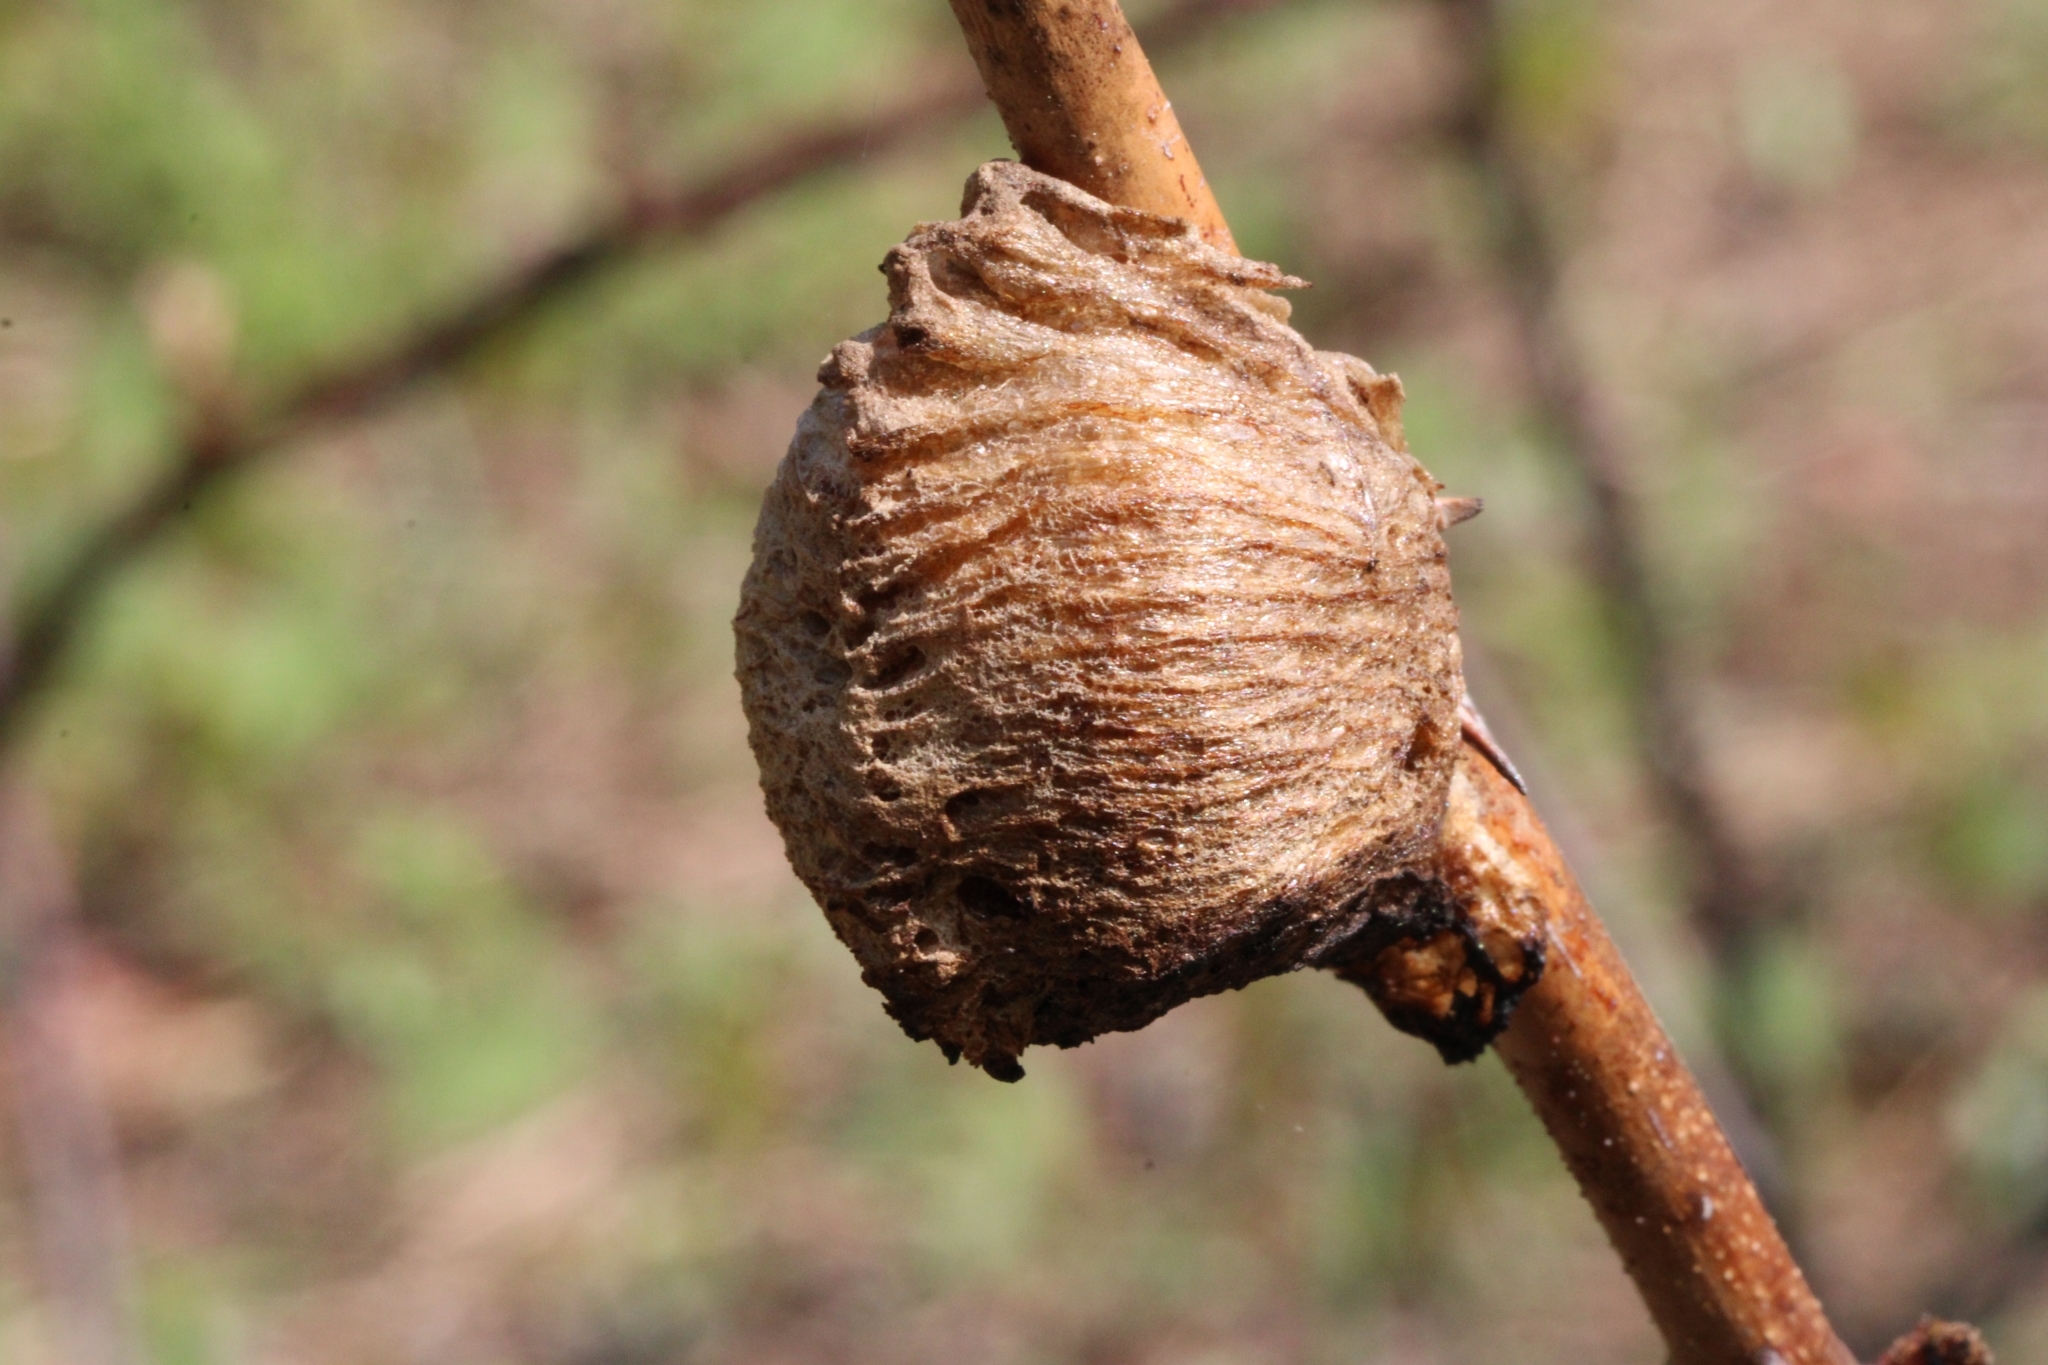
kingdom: Animalia
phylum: Arthropoda
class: Insecta
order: Mantodea
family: Mantidae
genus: Tenodera
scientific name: Tenodera sinensis
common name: Chinese mantis
